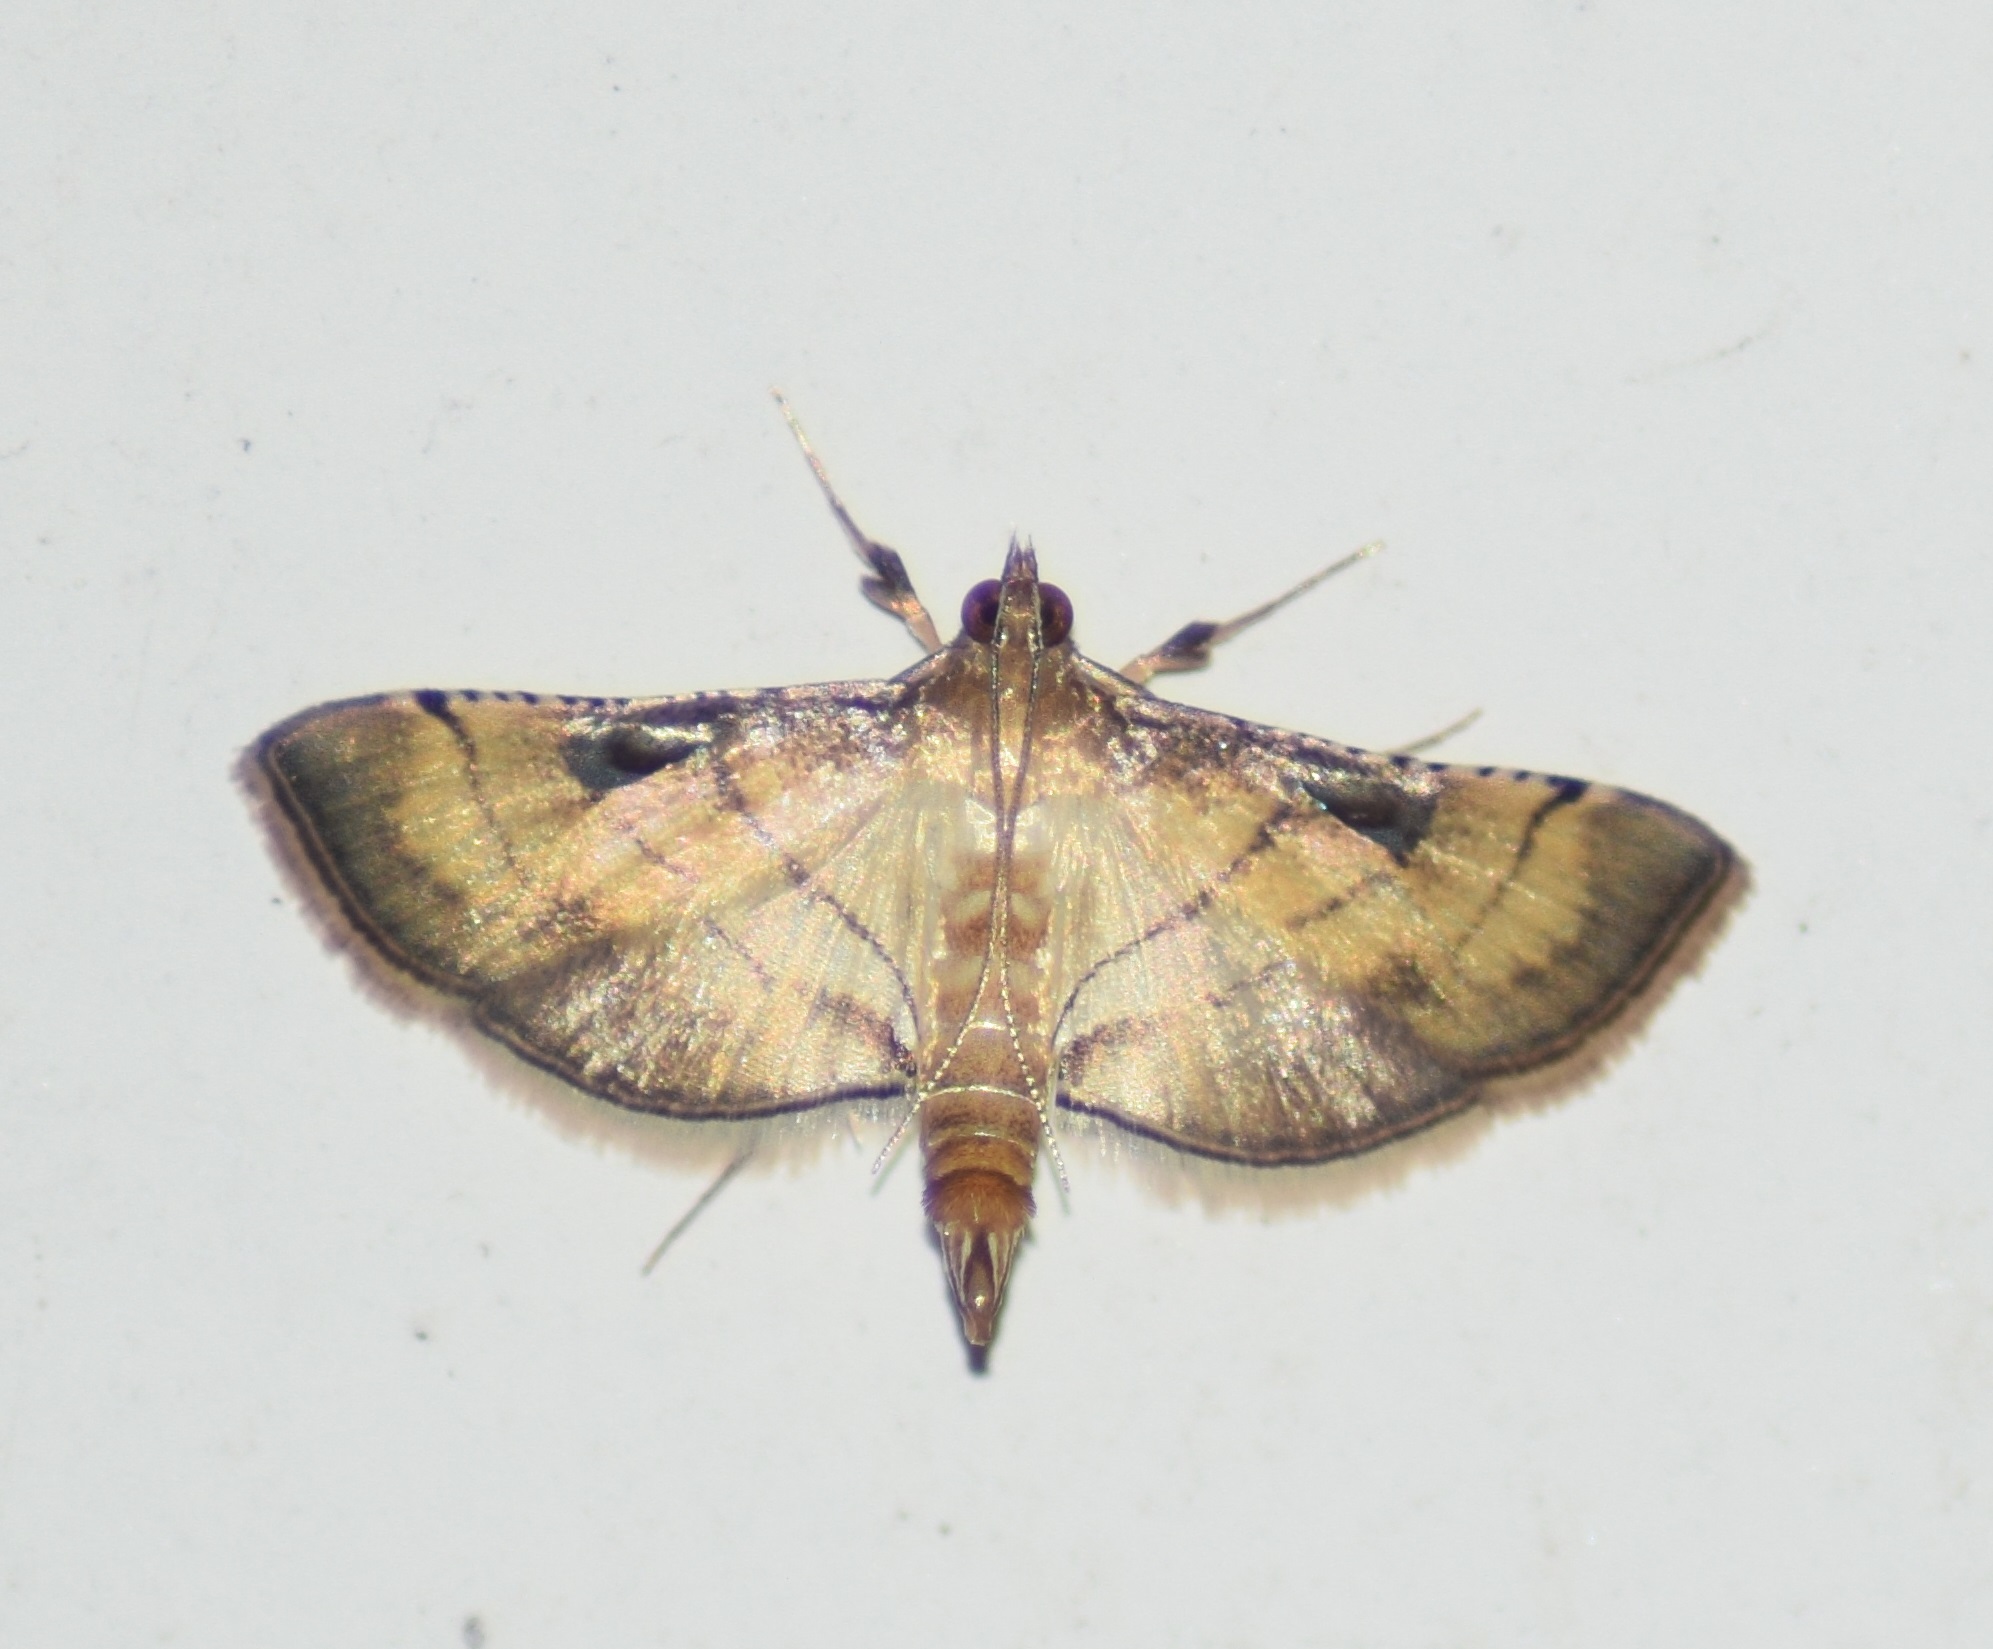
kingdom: Animalia
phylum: Arthropoda
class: Insecta
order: Lepidoptera
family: Crambidae
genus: Cnaphalocrocis
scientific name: Cnaphalocrocis poeyalis
